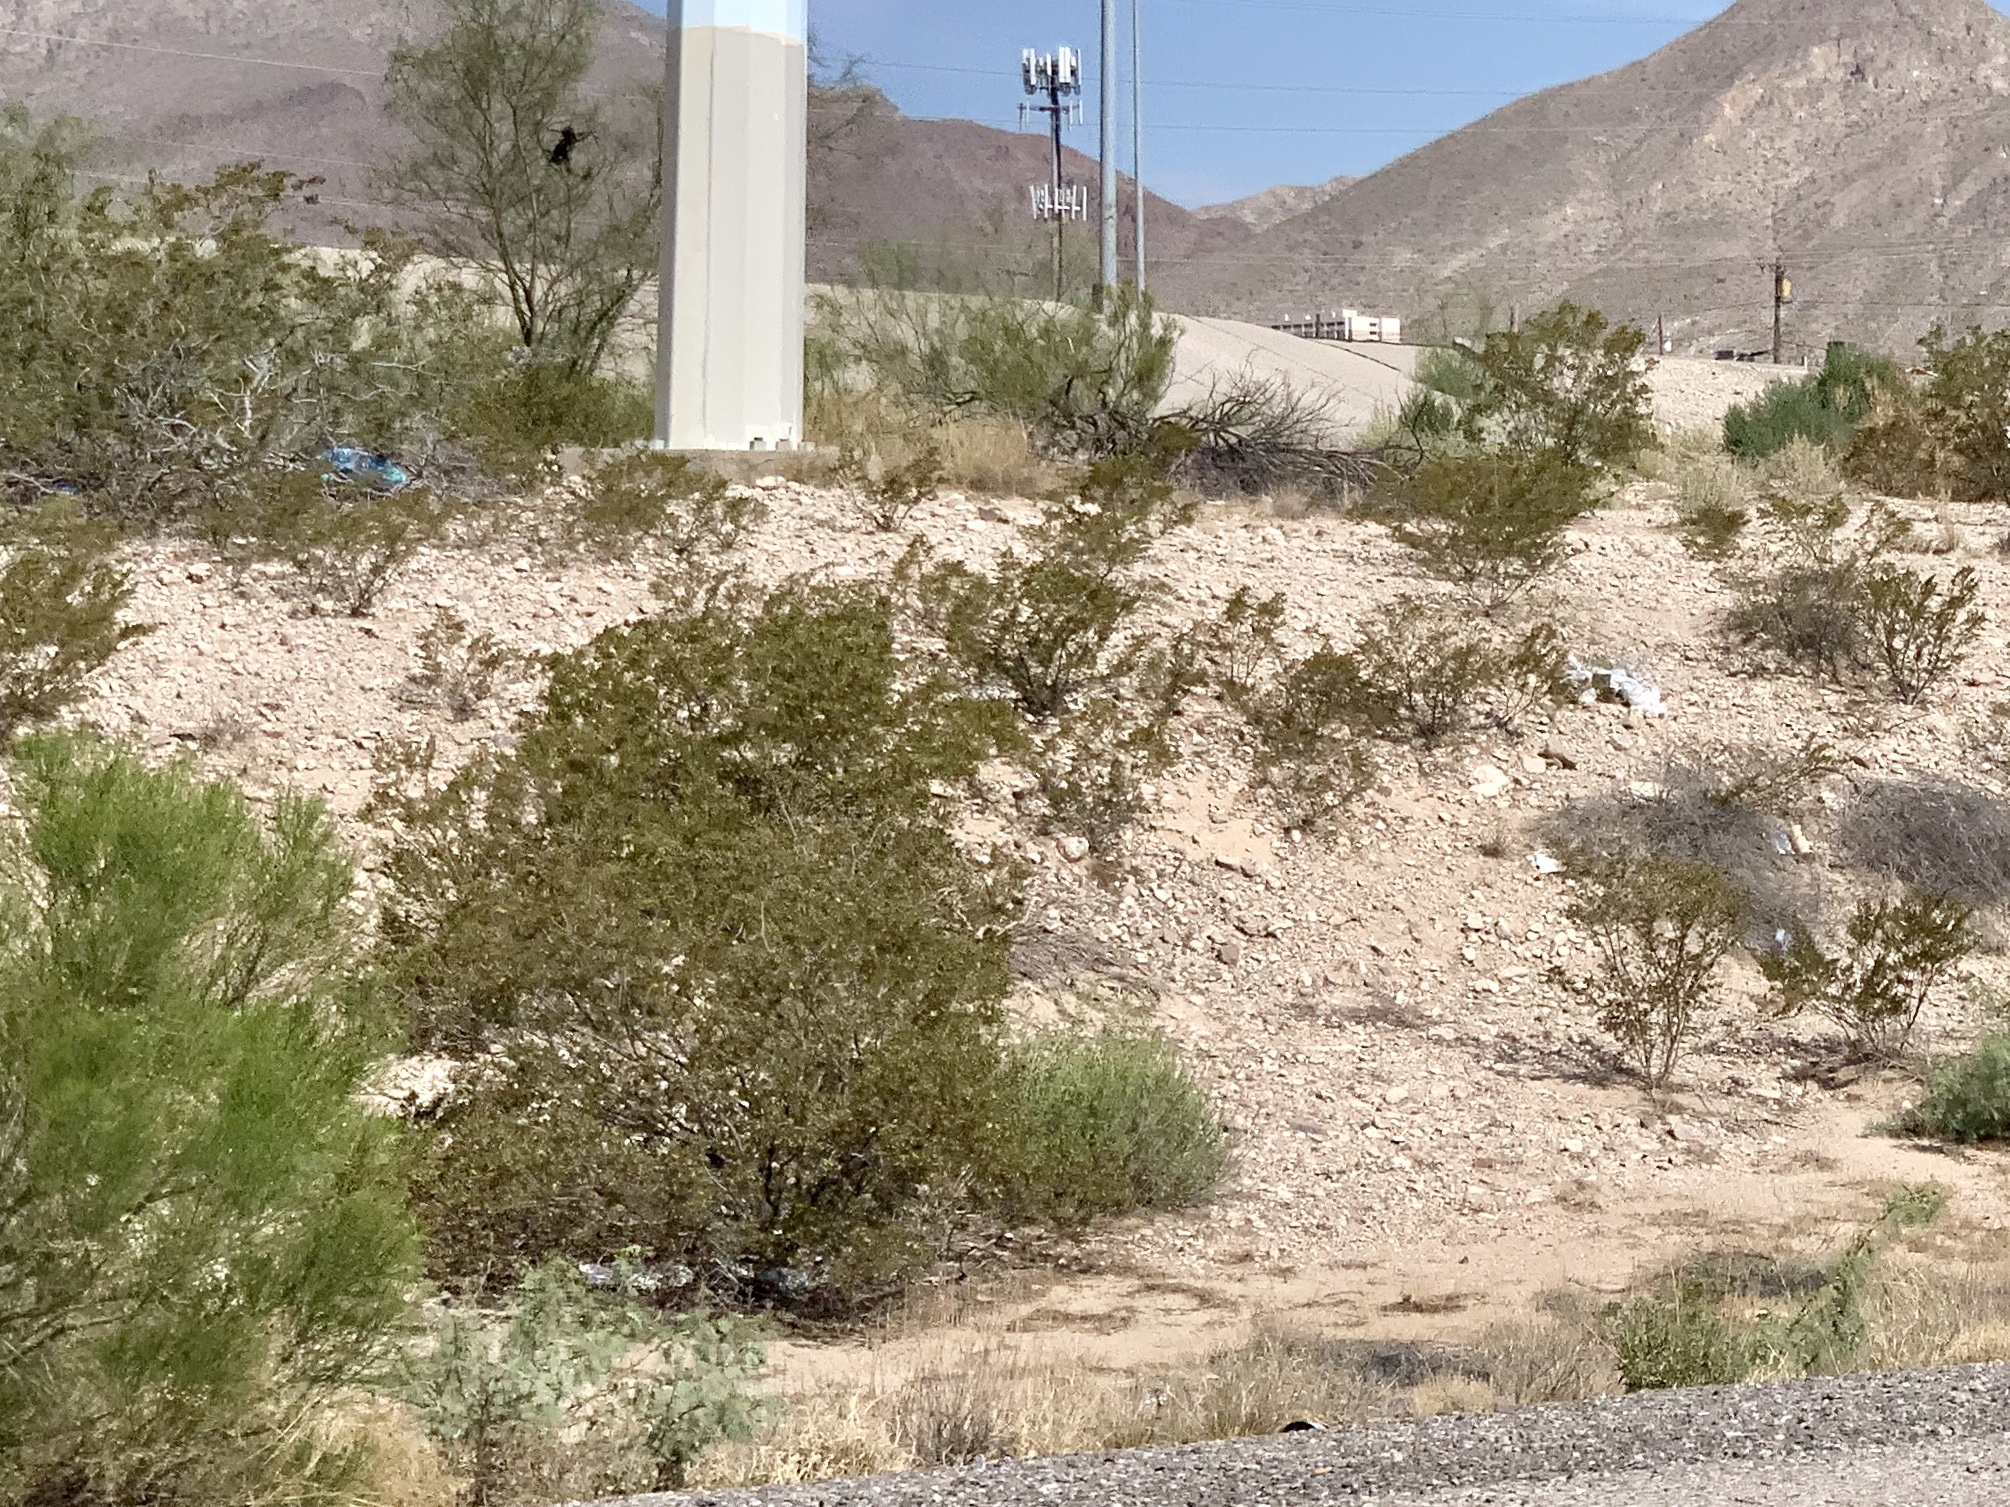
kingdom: Plantae
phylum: Tracheophyta
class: Magnoliopsida
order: Zygophyllales
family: Zygophyllaceae
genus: Larrea
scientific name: Larrea tridentata
